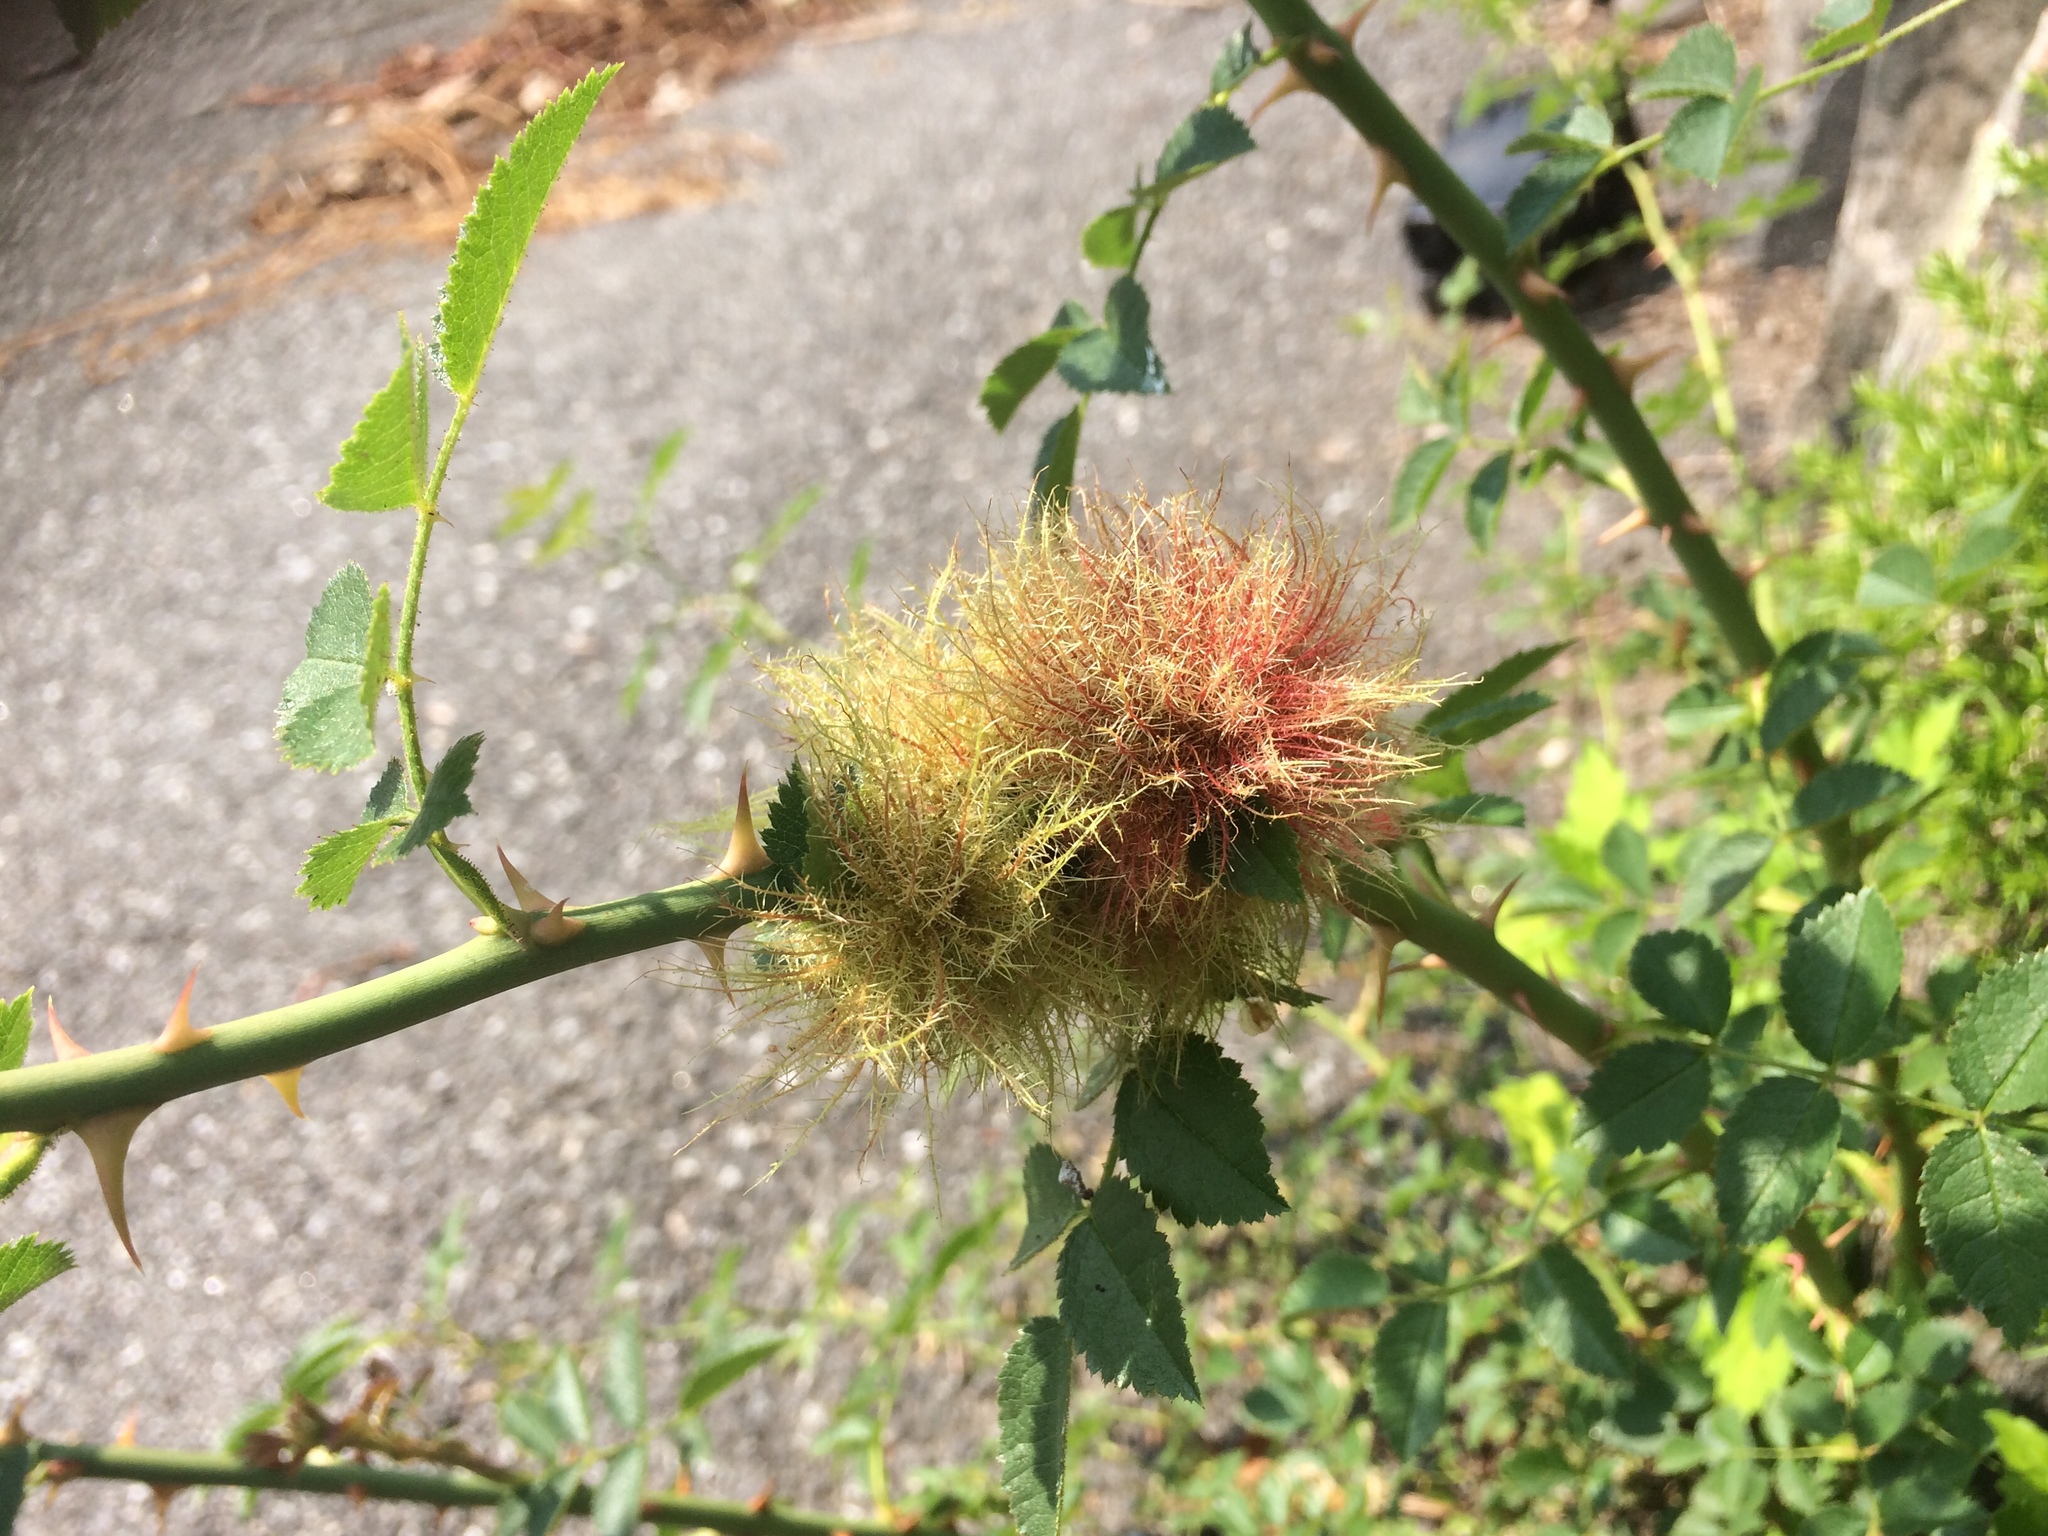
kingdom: Animalia
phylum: Arthropoda
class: Insecta
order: Hymenoptera
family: Cynipidae
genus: Diplolepis
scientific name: Diplolepis rosae
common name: Bedeguar gall
